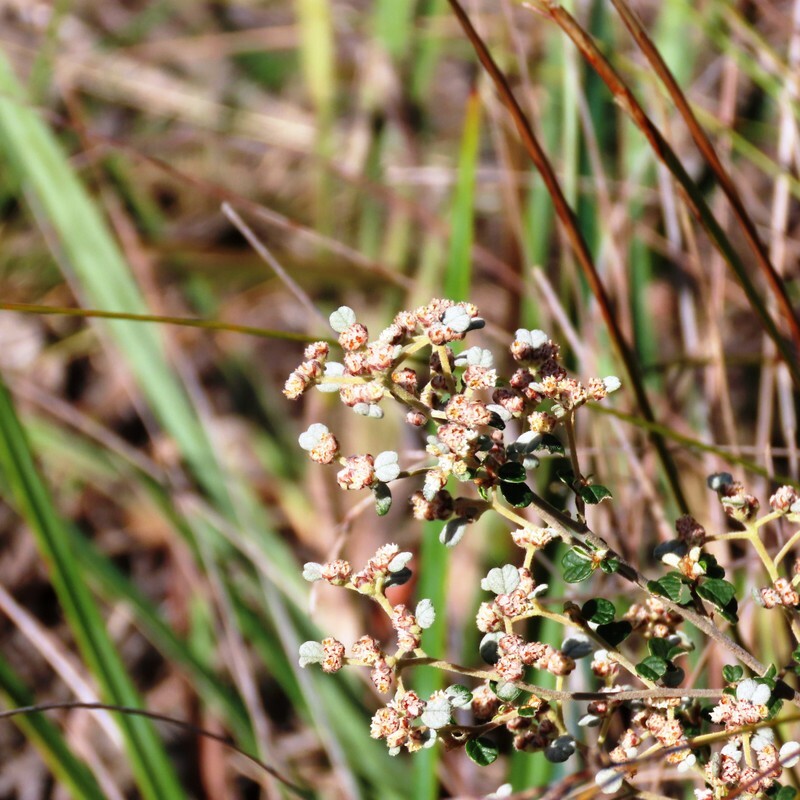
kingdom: Plantae
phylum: Tracheophyta
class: Magnoliopsida
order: Rosales
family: Rhamnaceae
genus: Spyridium
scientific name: Spyridium parvifolium
